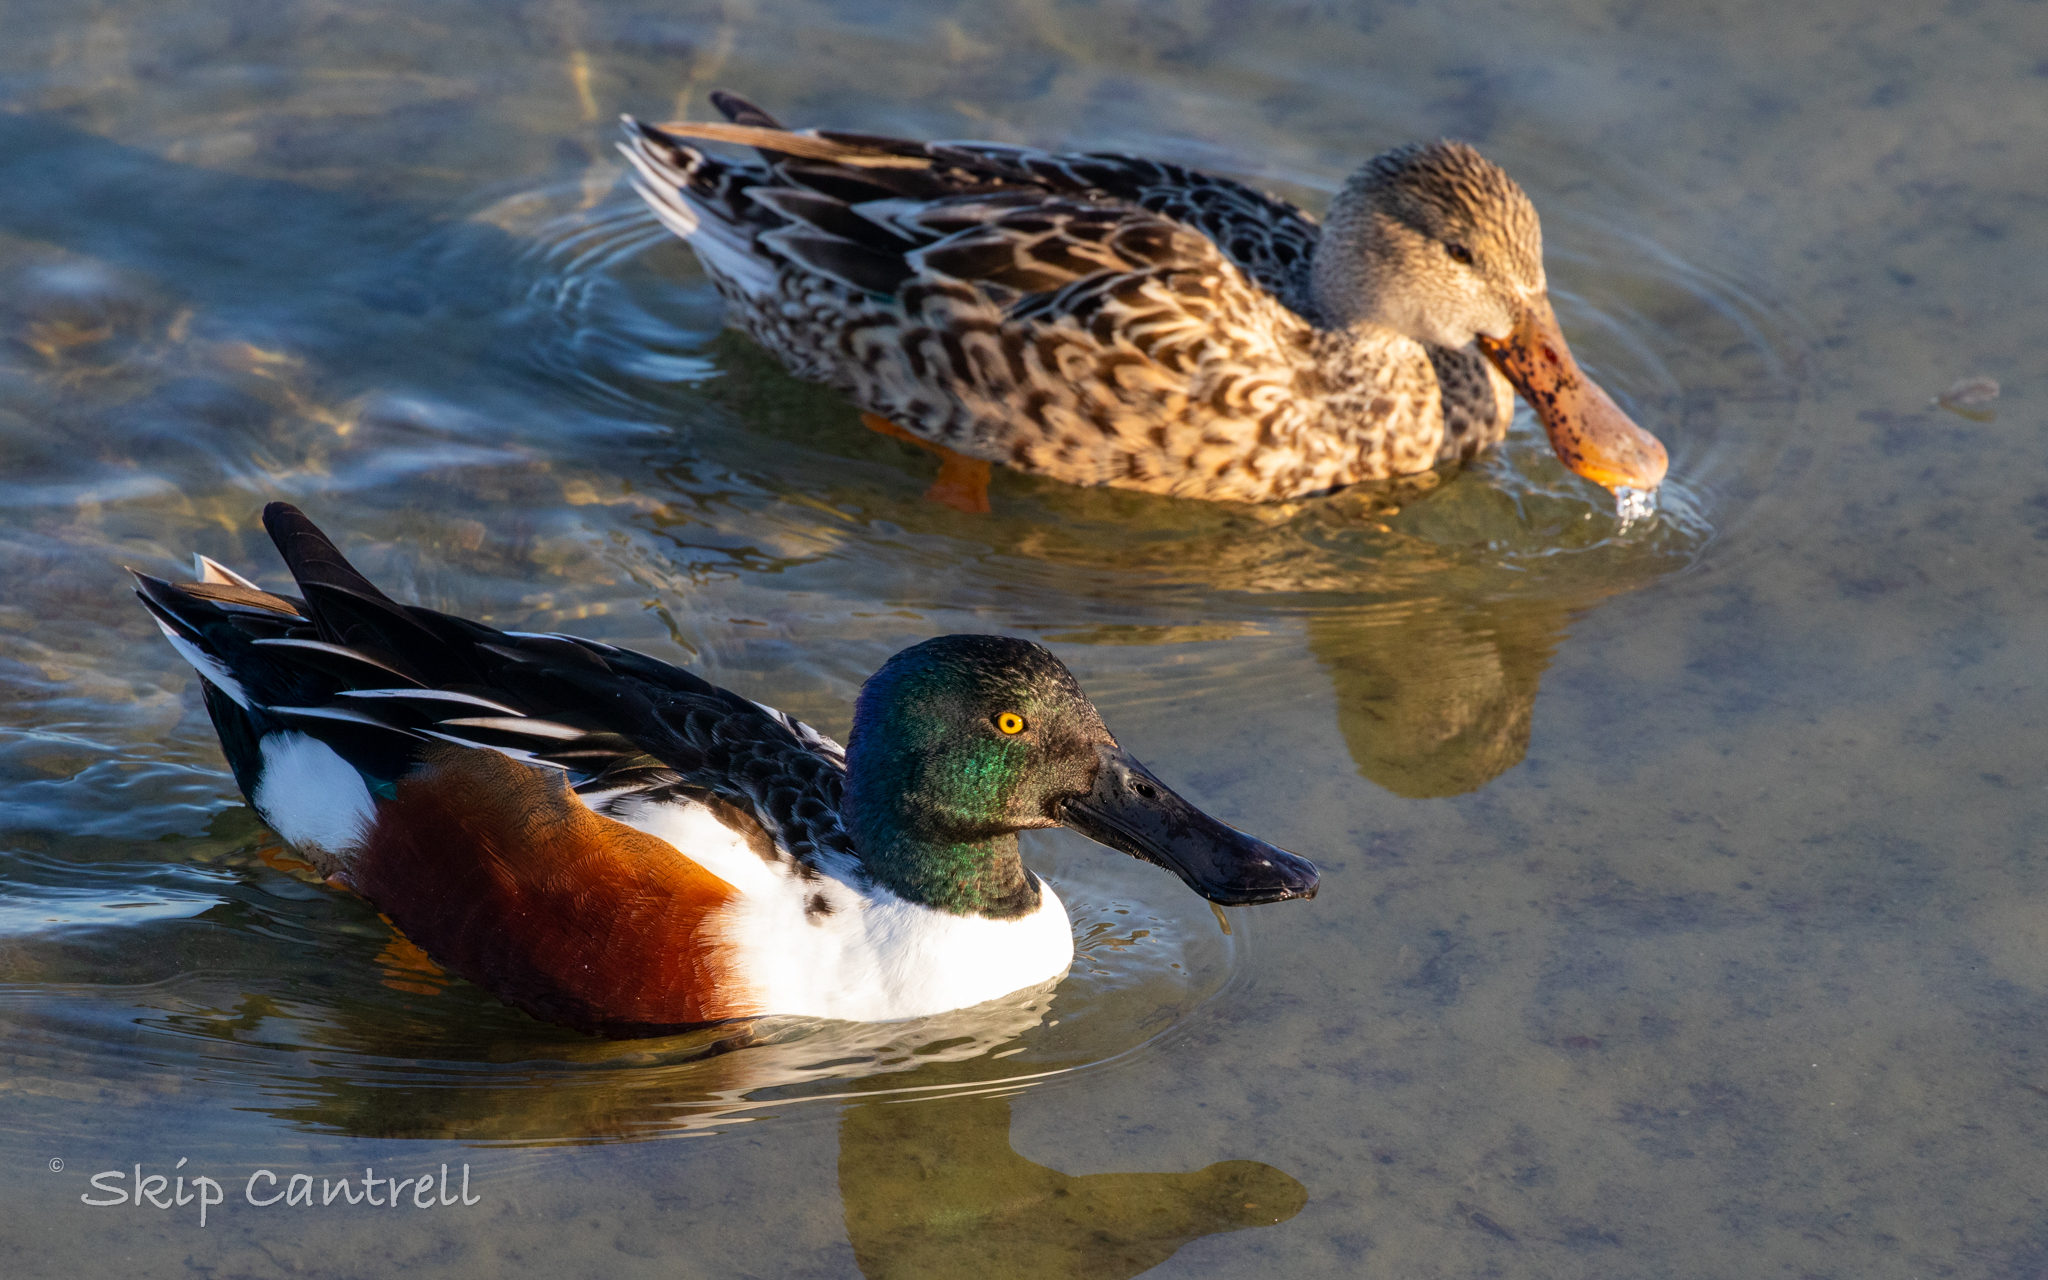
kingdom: Animalia
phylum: Chordata
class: Aves
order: Anseriformes
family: Anatidae
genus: Spatula
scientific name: Spatula clypeata
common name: Northern shoveler
